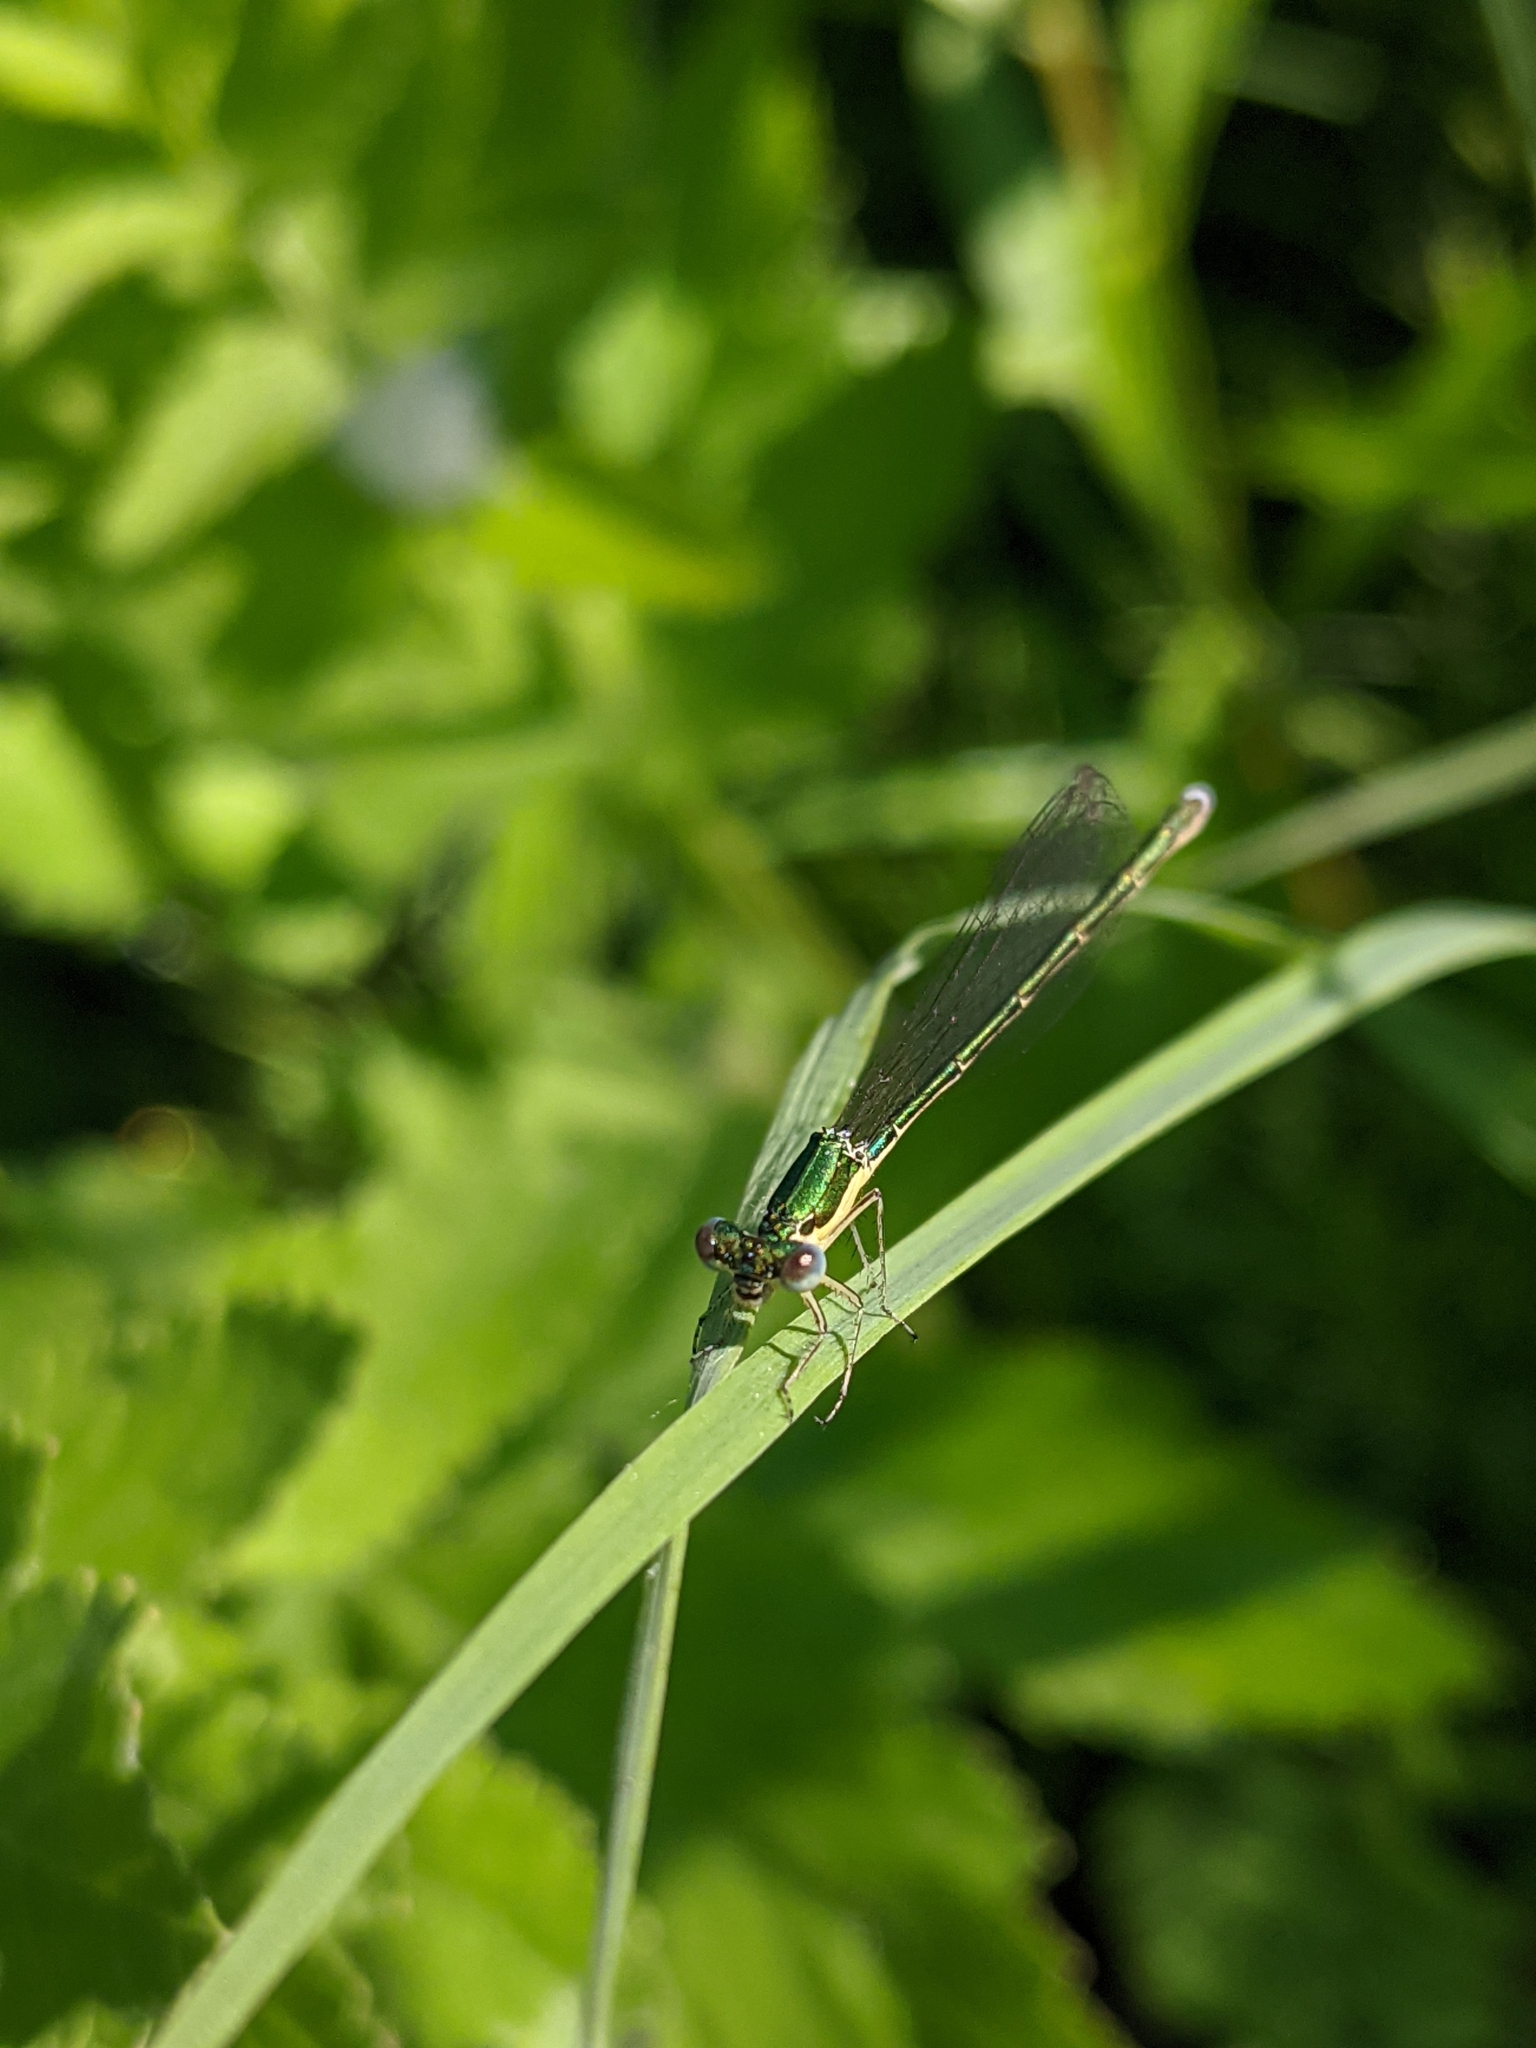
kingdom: Animalia
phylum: Arthropoda
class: Insecta
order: Odonata
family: Coenagrionidae
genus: Nehalennia
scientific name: Nehalennia irene
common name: Sedge sprite
